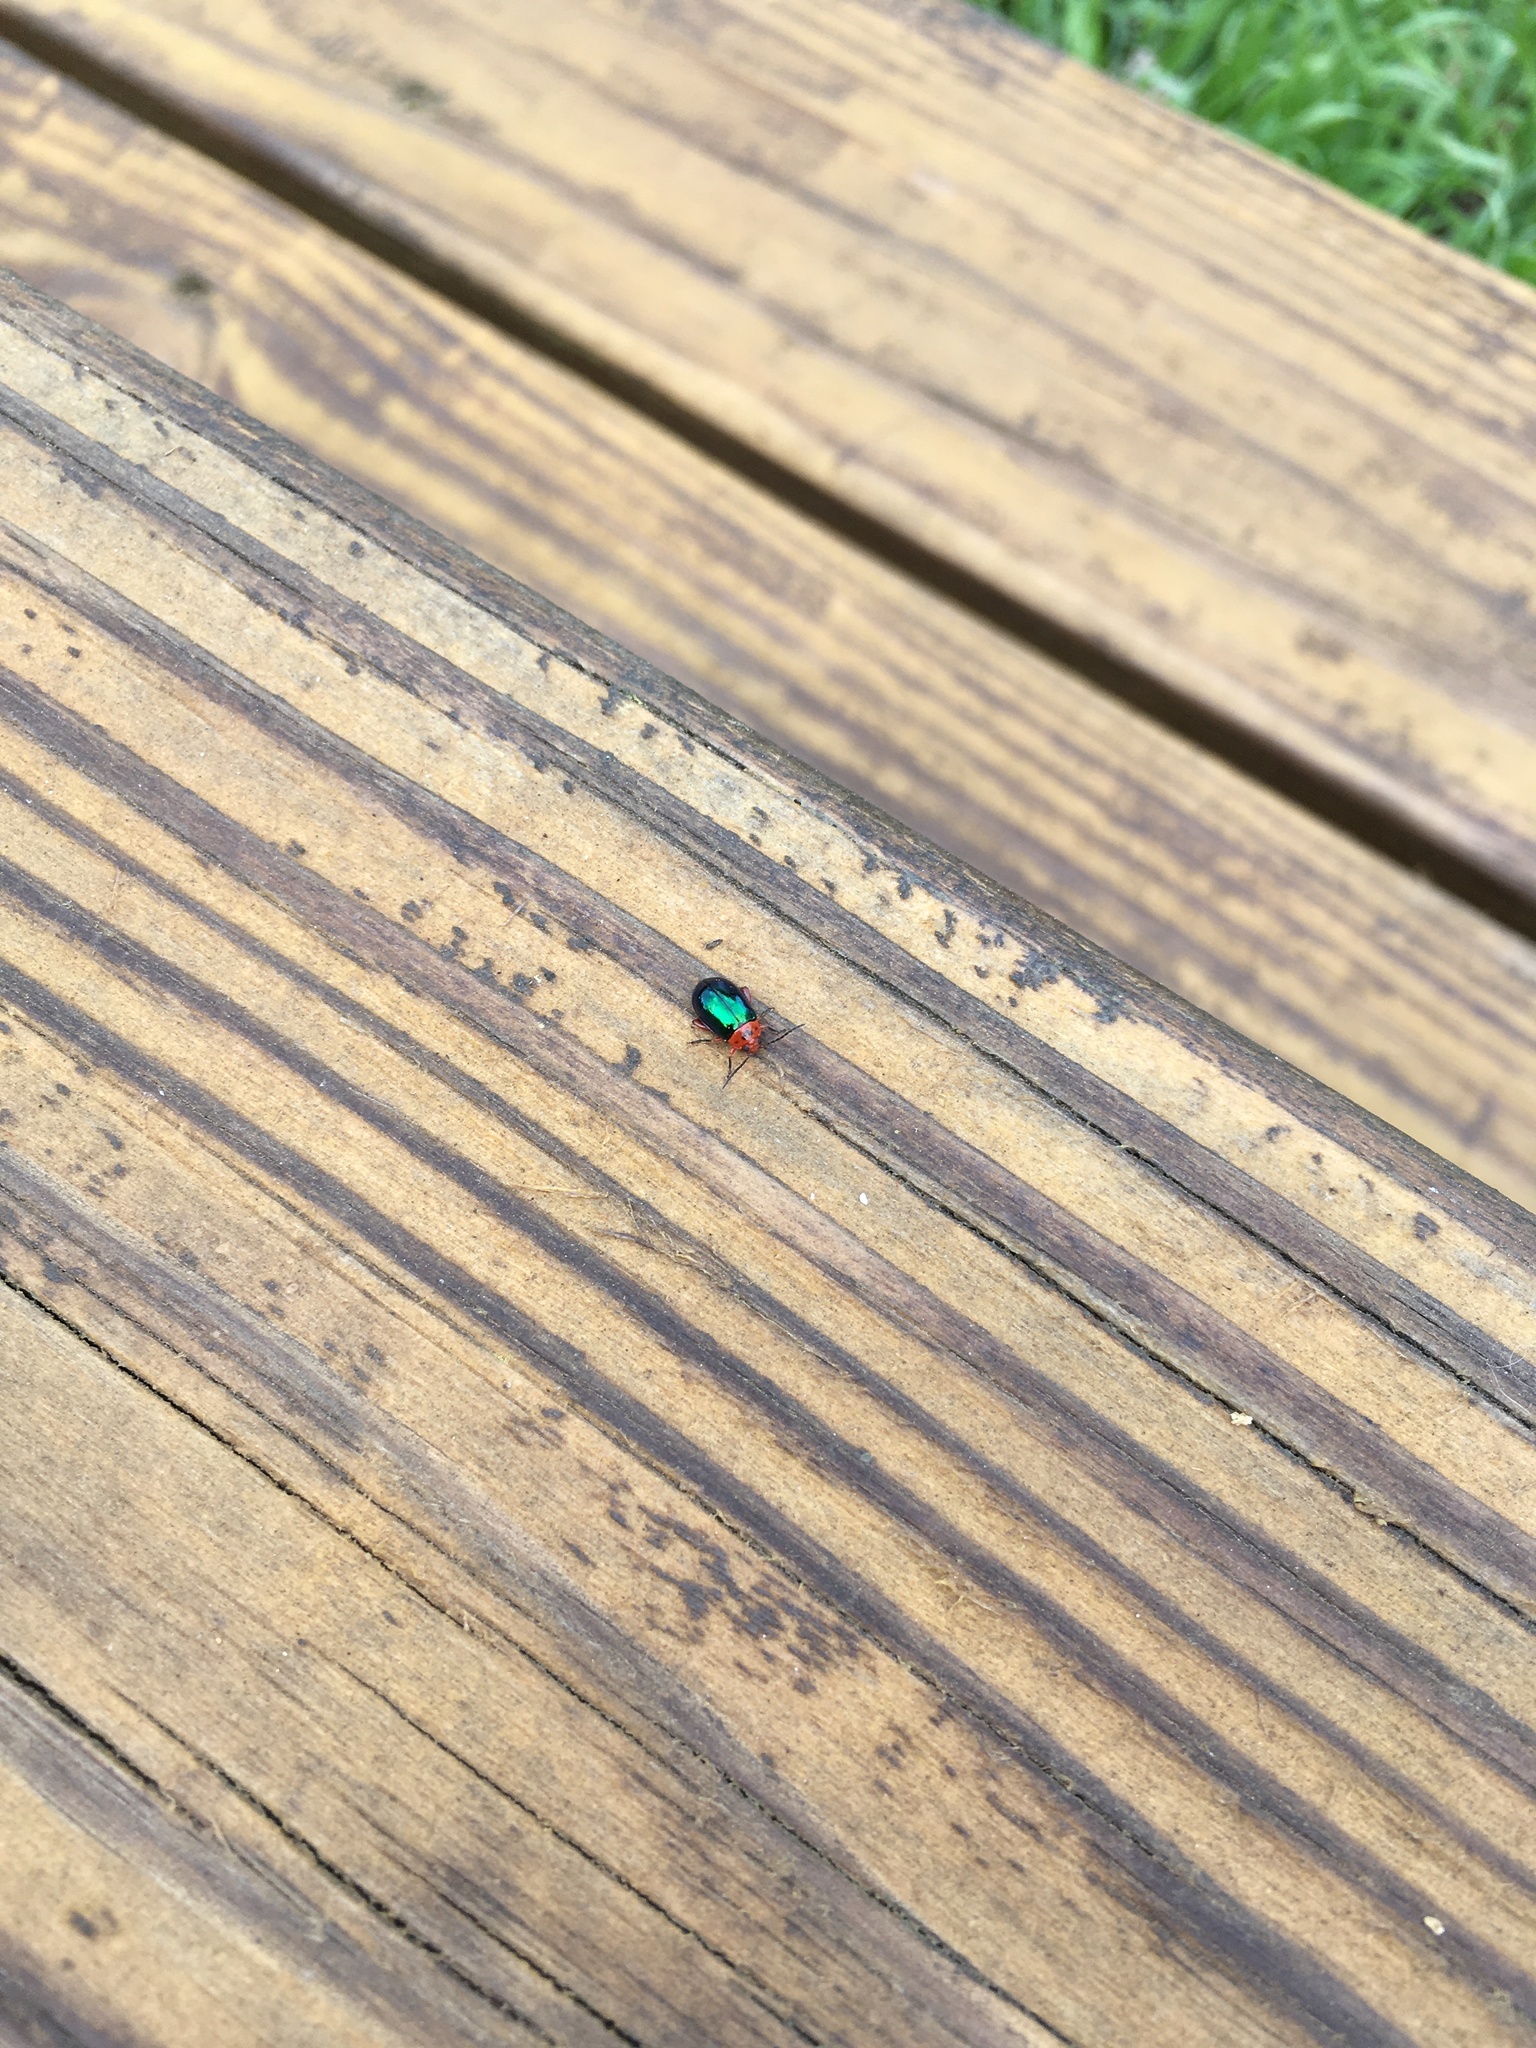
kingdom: Animalia
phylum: Arthropoda
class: Insecta
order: Coleoptera
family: Chrysomelidae
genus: Kuschelina
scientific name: Kuschelina gibbitarsa
